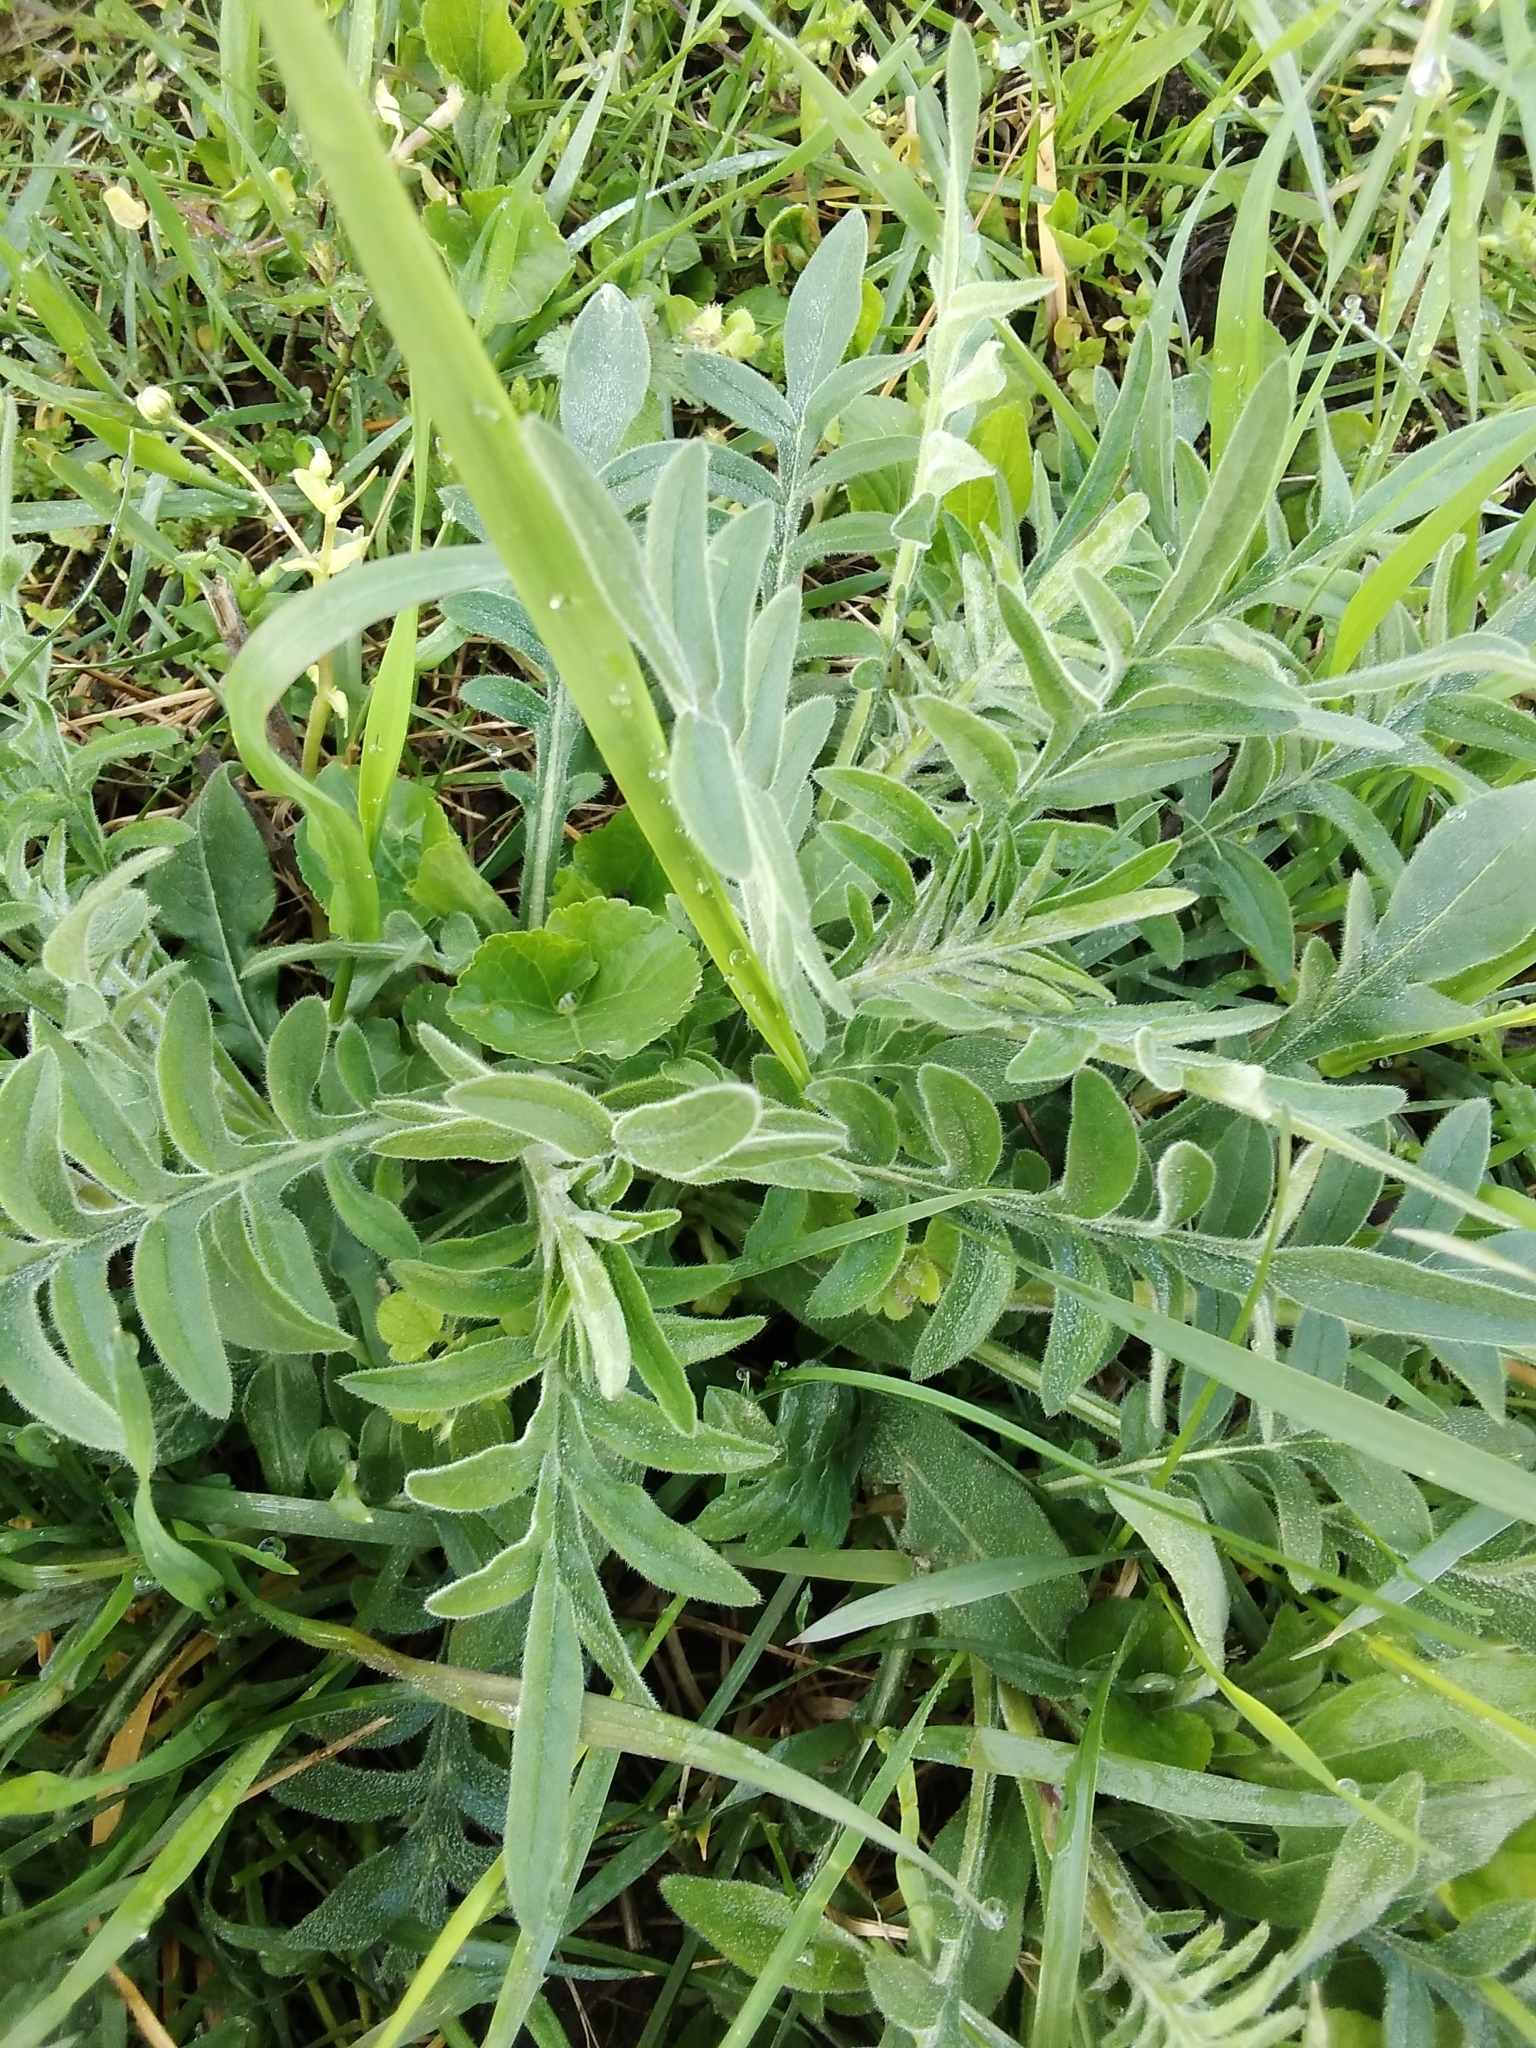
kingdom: Plantae
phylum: Tracheophyta
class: Magnoliopsida
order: Dipsacales
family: Caprifoliaceae
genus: Knautia
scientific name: Knautia arvensis
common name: Field scabiosa
